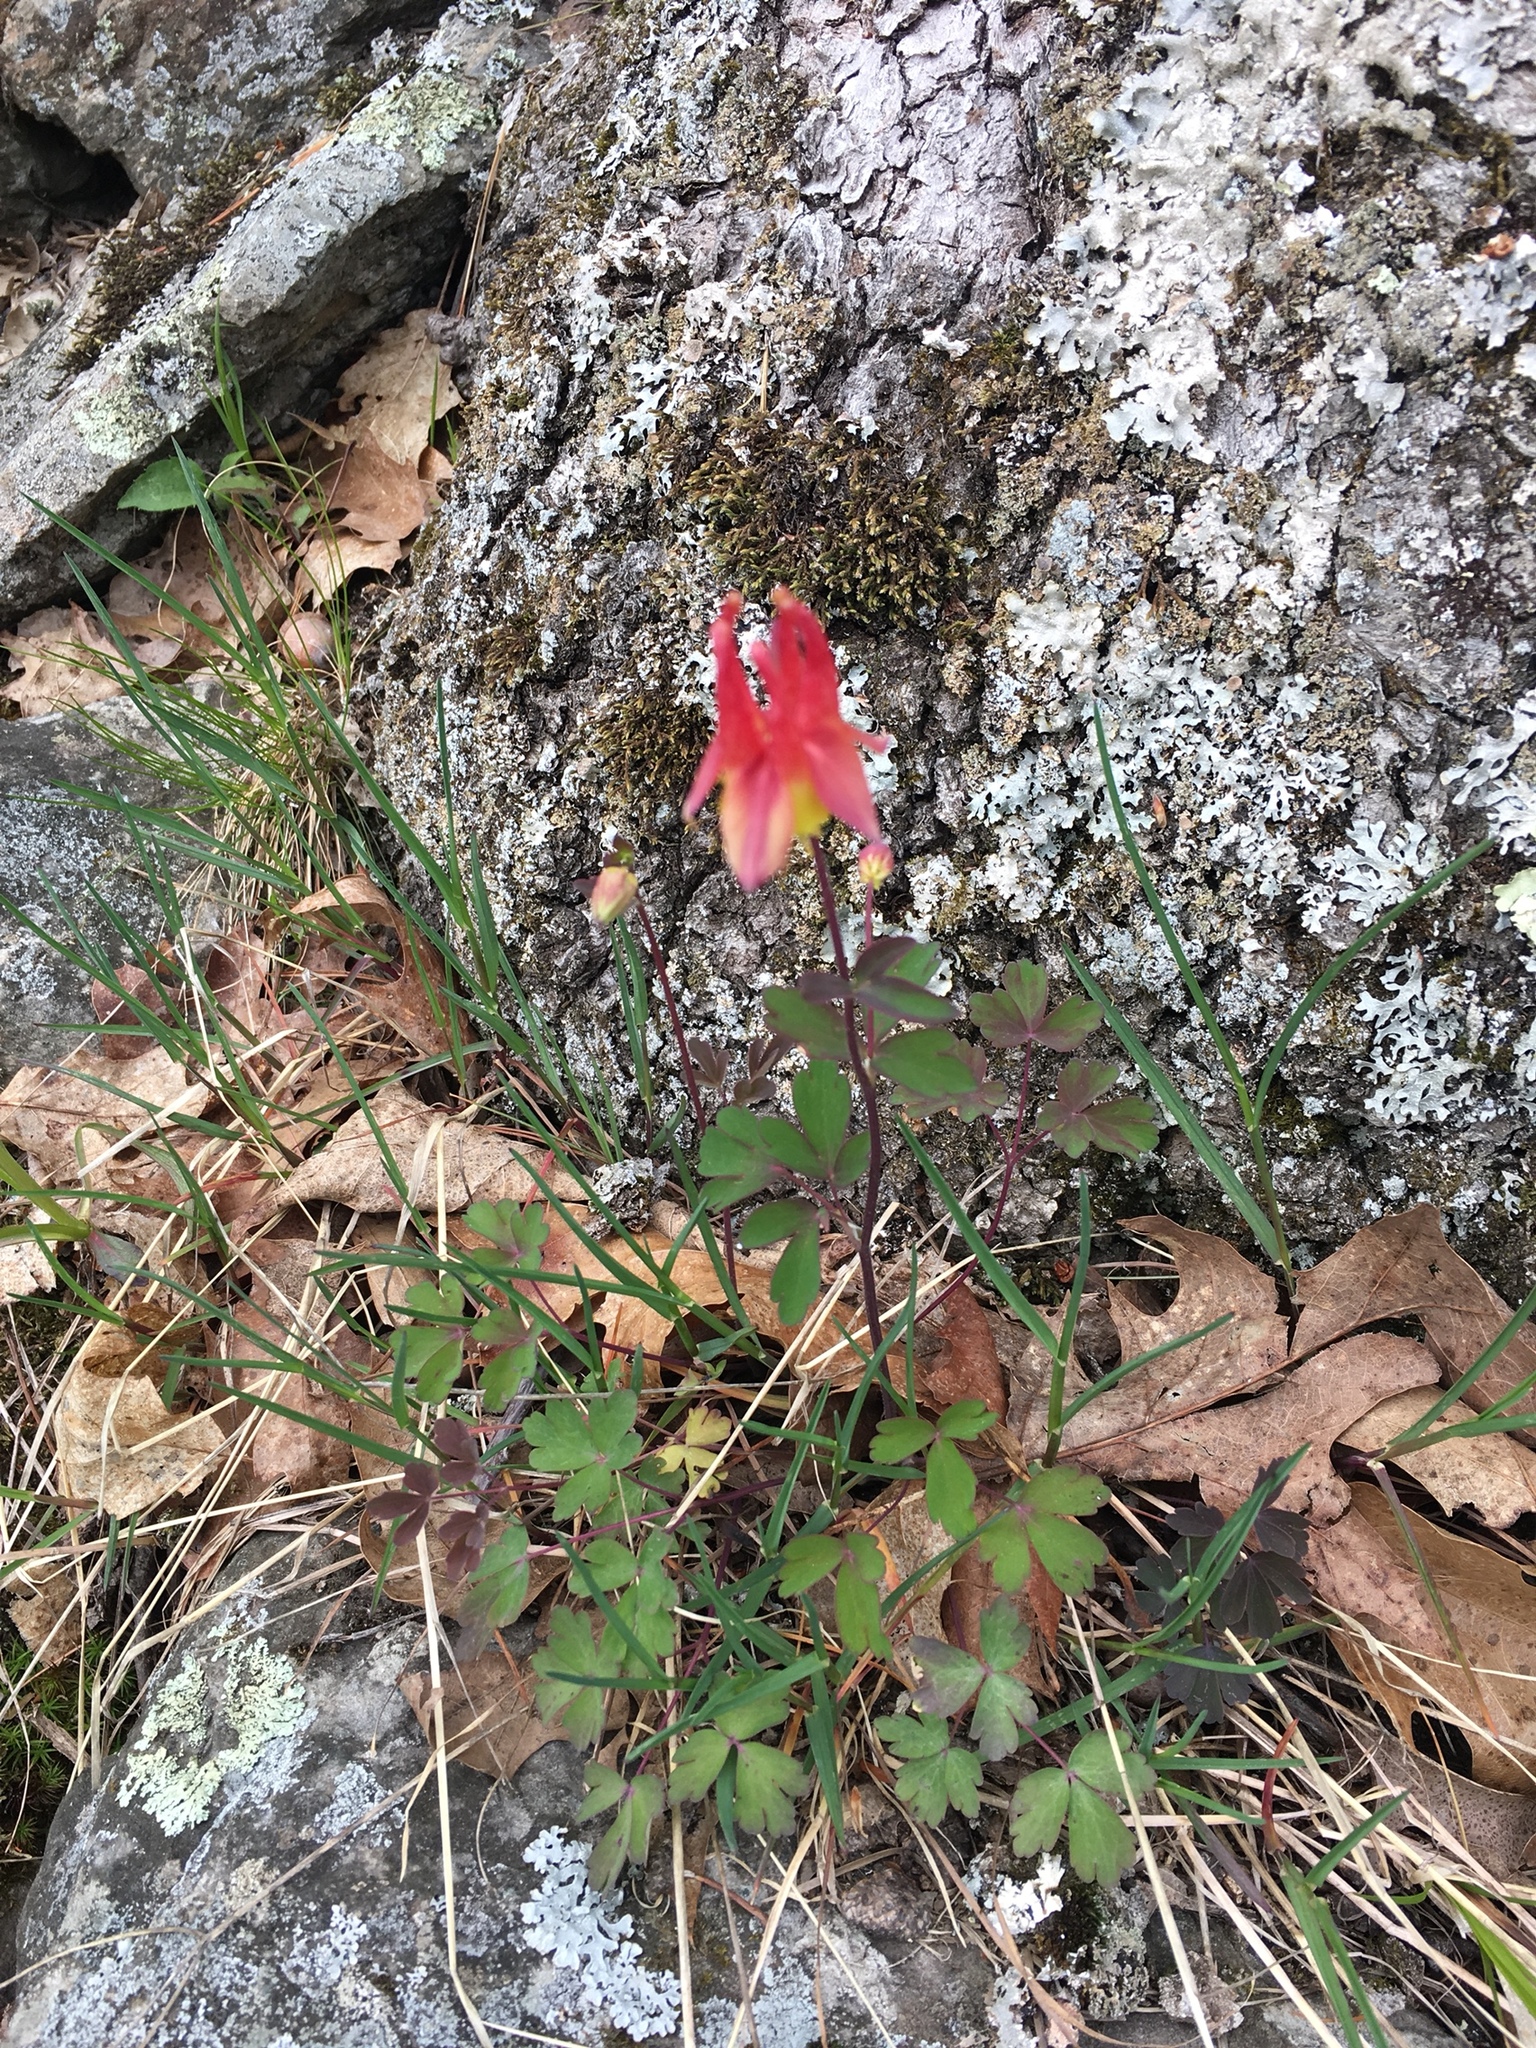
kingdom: Plantae
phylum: Tracheophyta
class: Magnoliopsida
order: Ranunculales
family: Ranunculaceae
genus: Aquilegia
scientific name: Aquilegia canadensis
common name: American columbine
